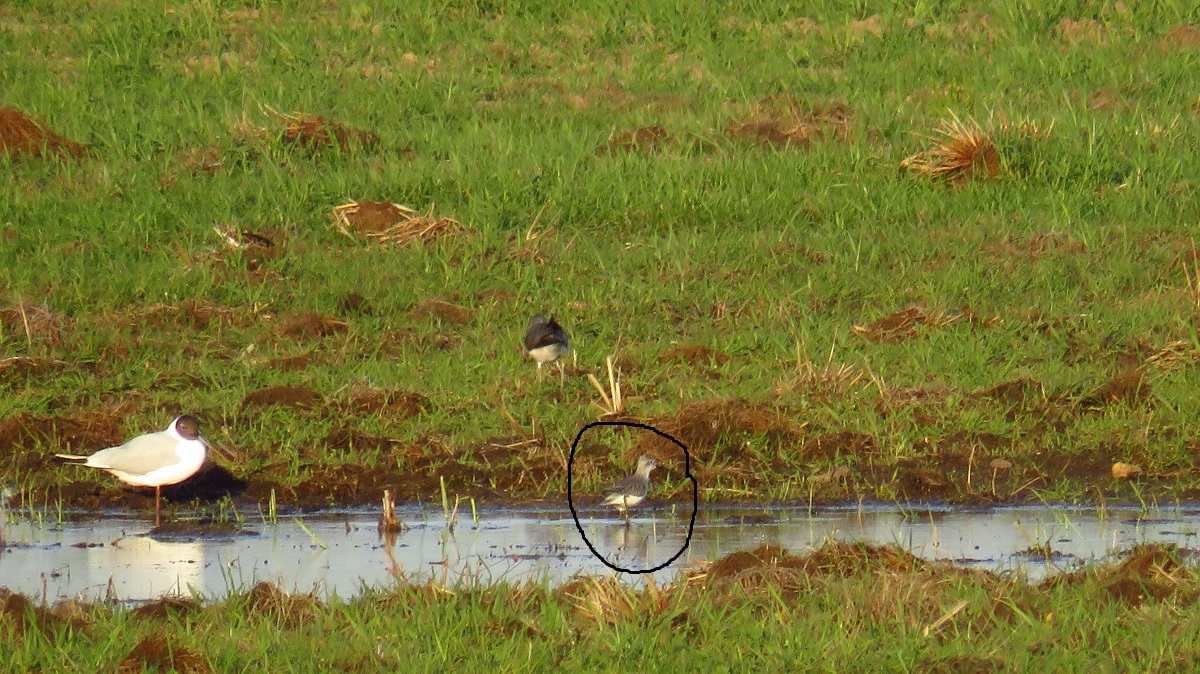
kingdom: Animalia
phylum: Chordata
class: Aves
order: Charadriiformes
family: Scolopacidae
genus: Tringa
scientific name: Tringa stagnatilis
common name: Marsh sandpiper
